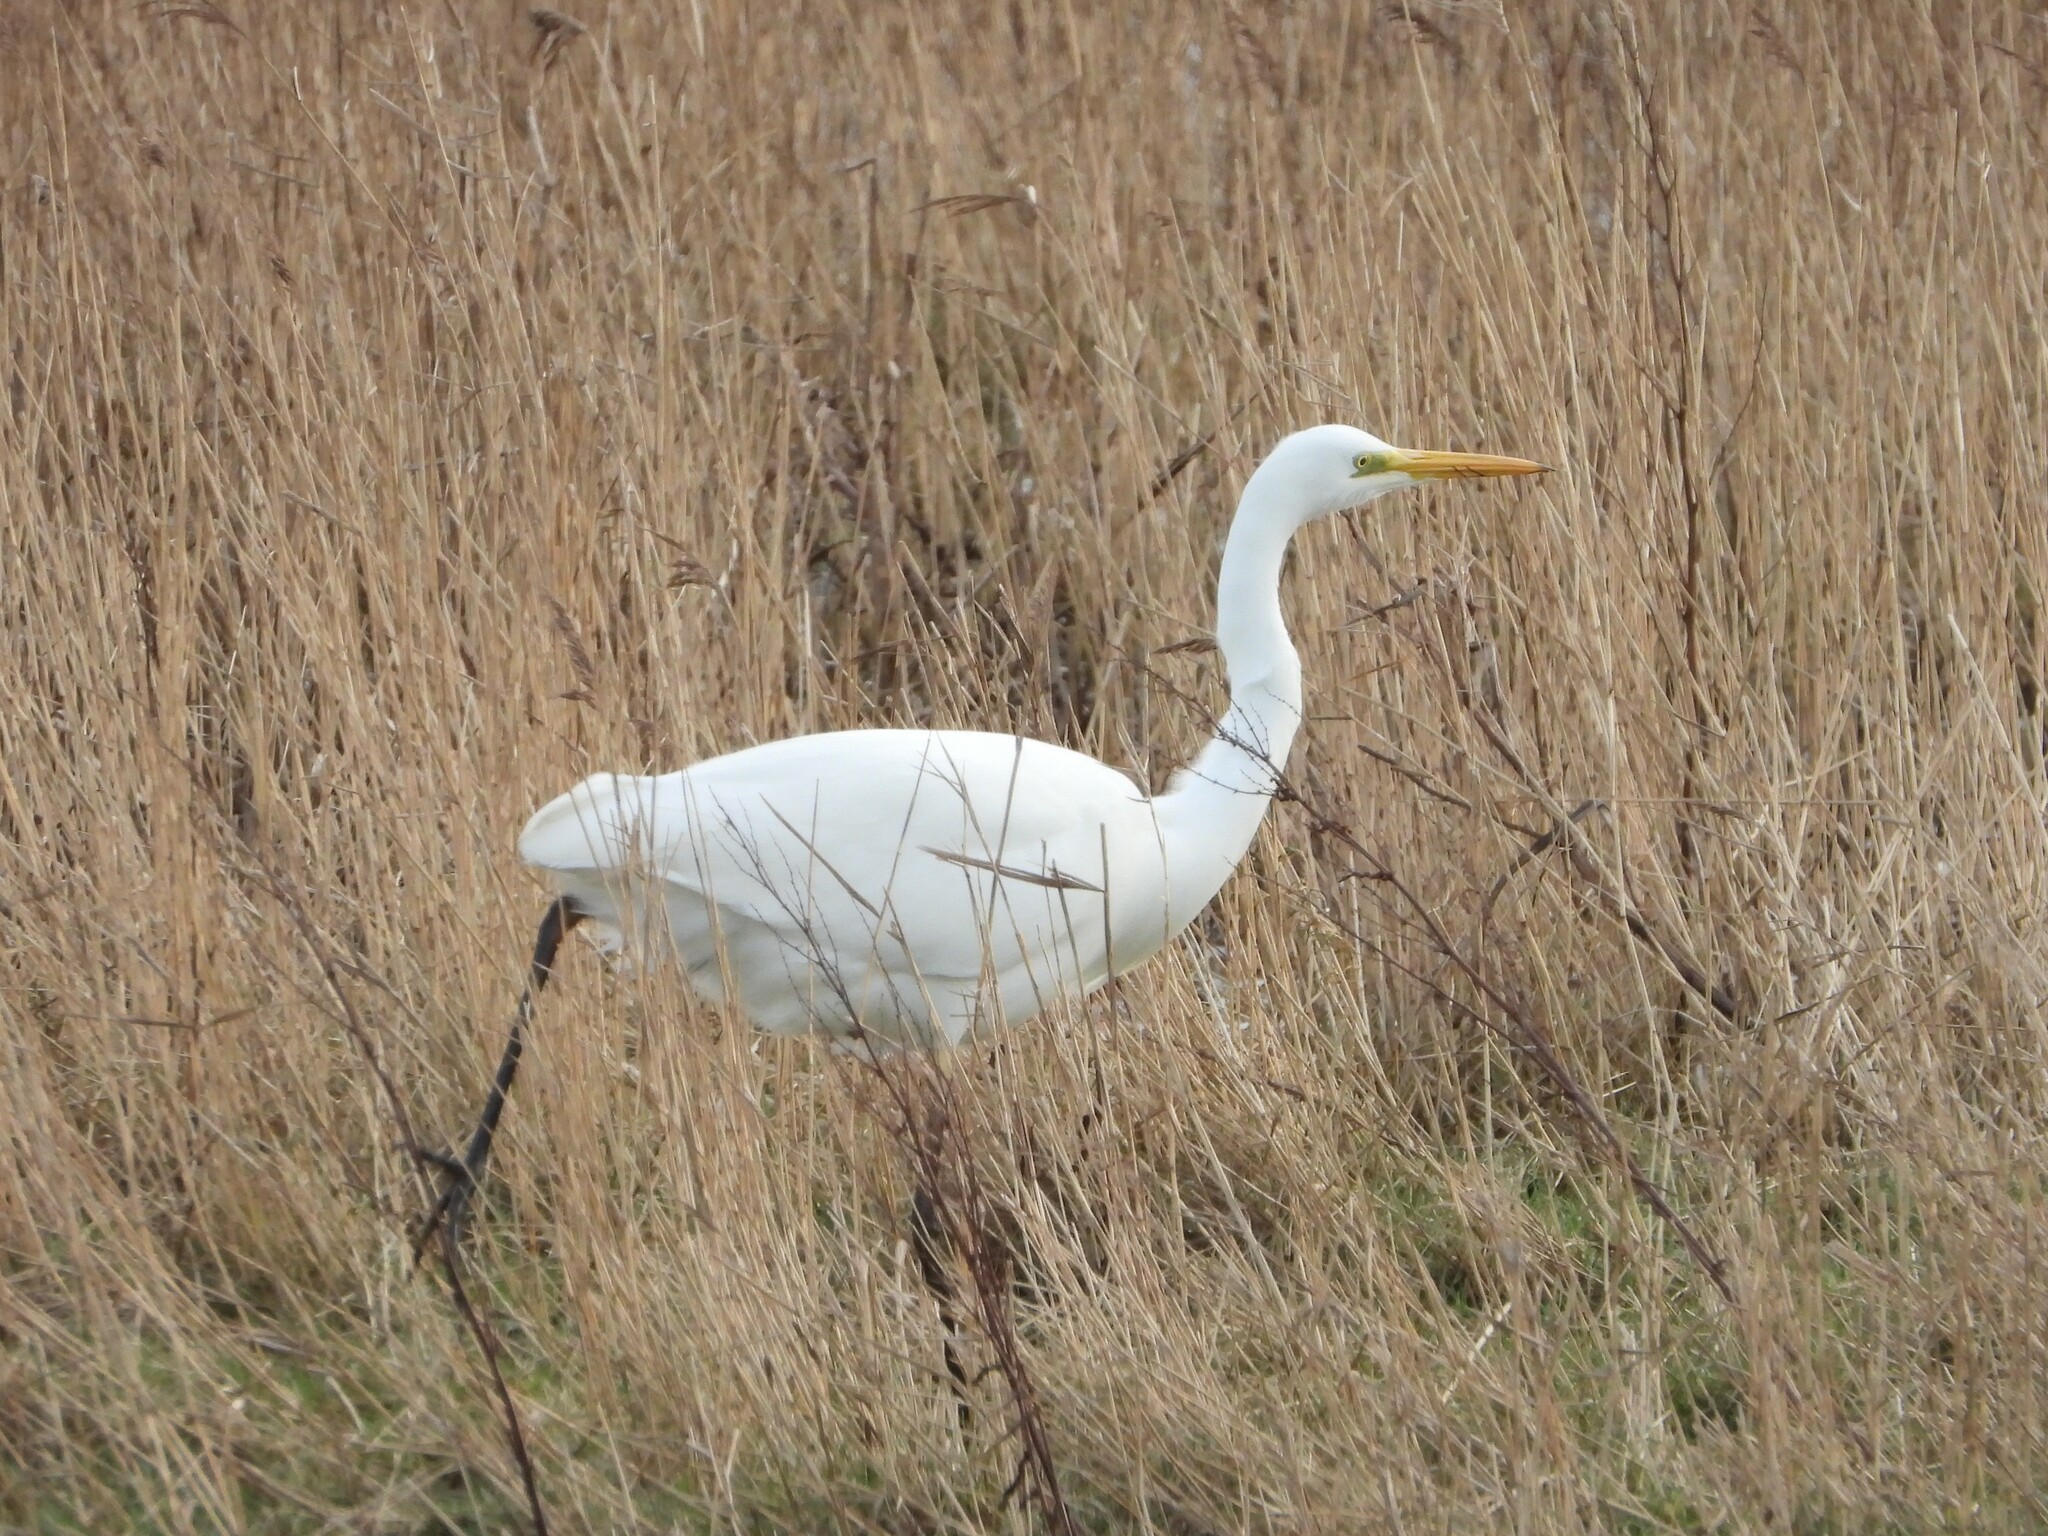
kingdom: Animalia
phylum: Chordata
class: Aves
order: Pelecaniformes
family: Ardeidae
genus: Ardea
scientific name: Ardea alba
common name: Great egret
